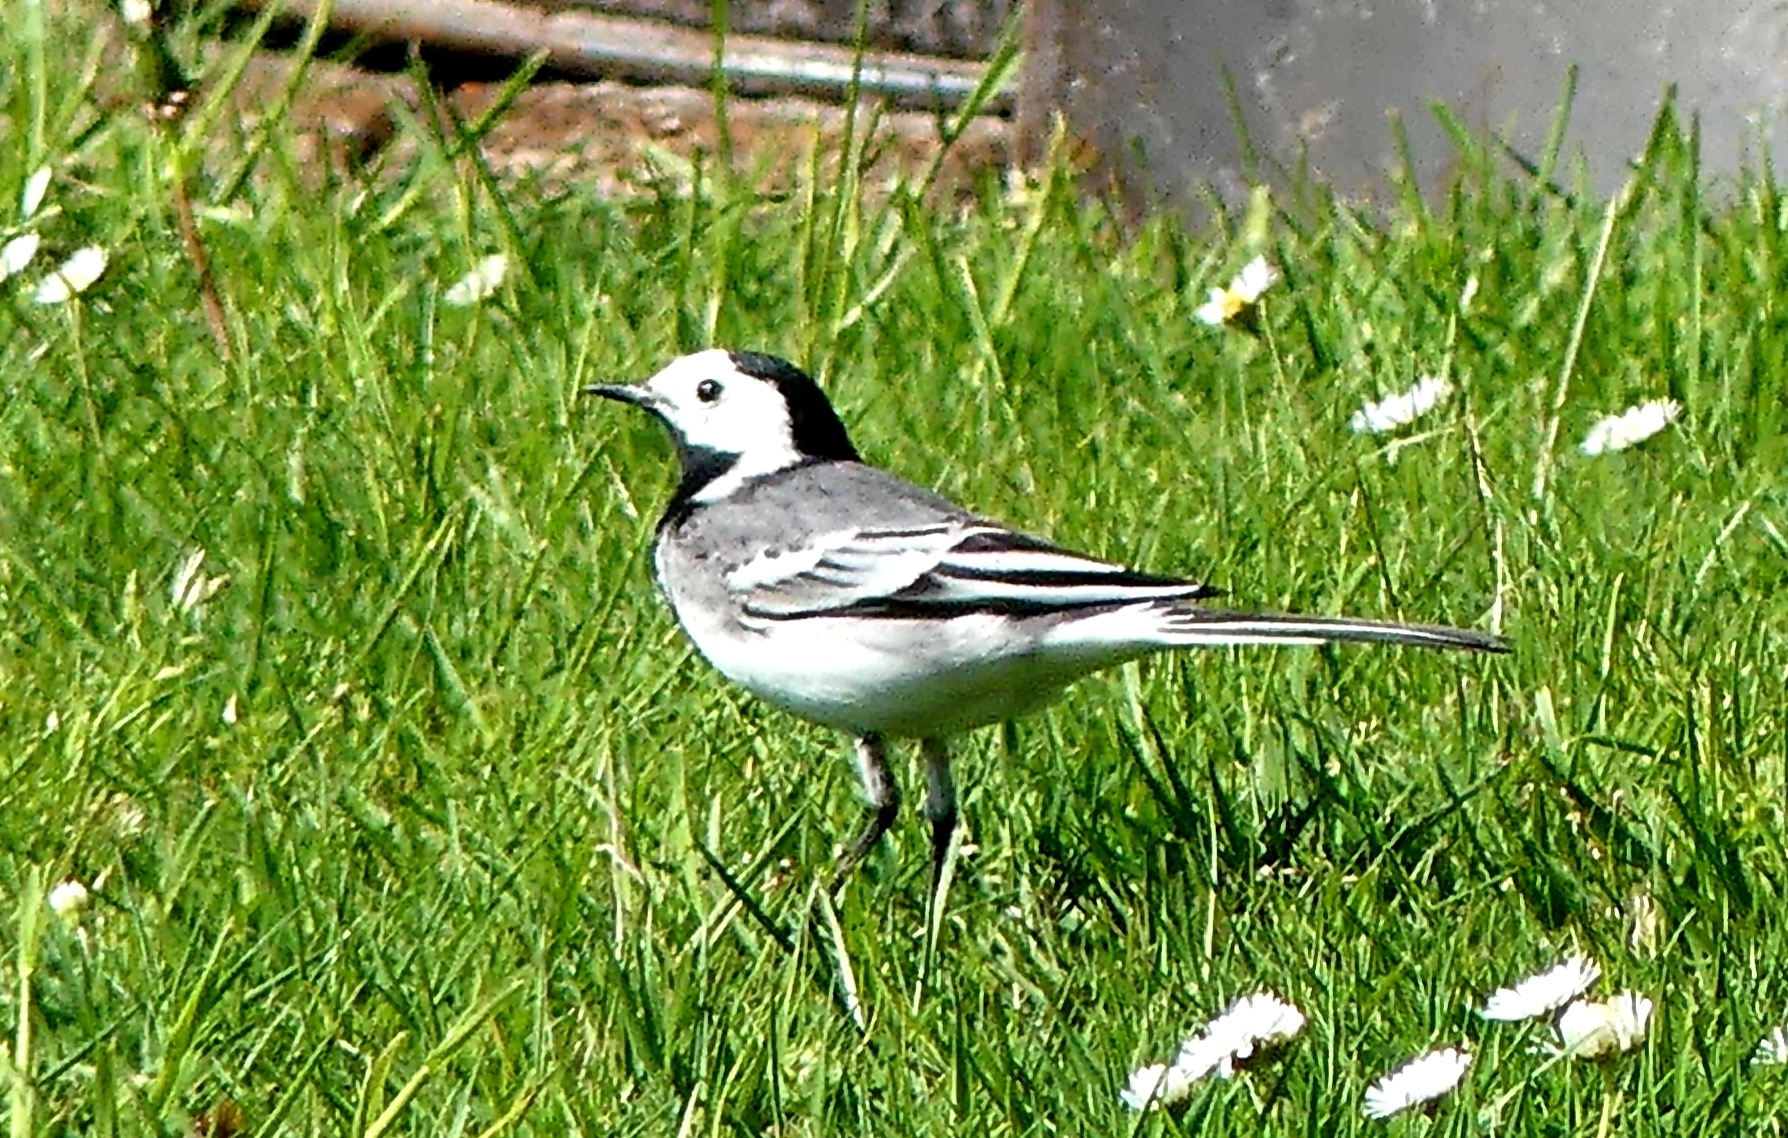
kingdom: Animalia
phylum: Chordata
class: Aves
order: Passeriformes
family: Motacillidae
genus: Motacilla
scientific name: Motacilla alba
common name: White wagtail
